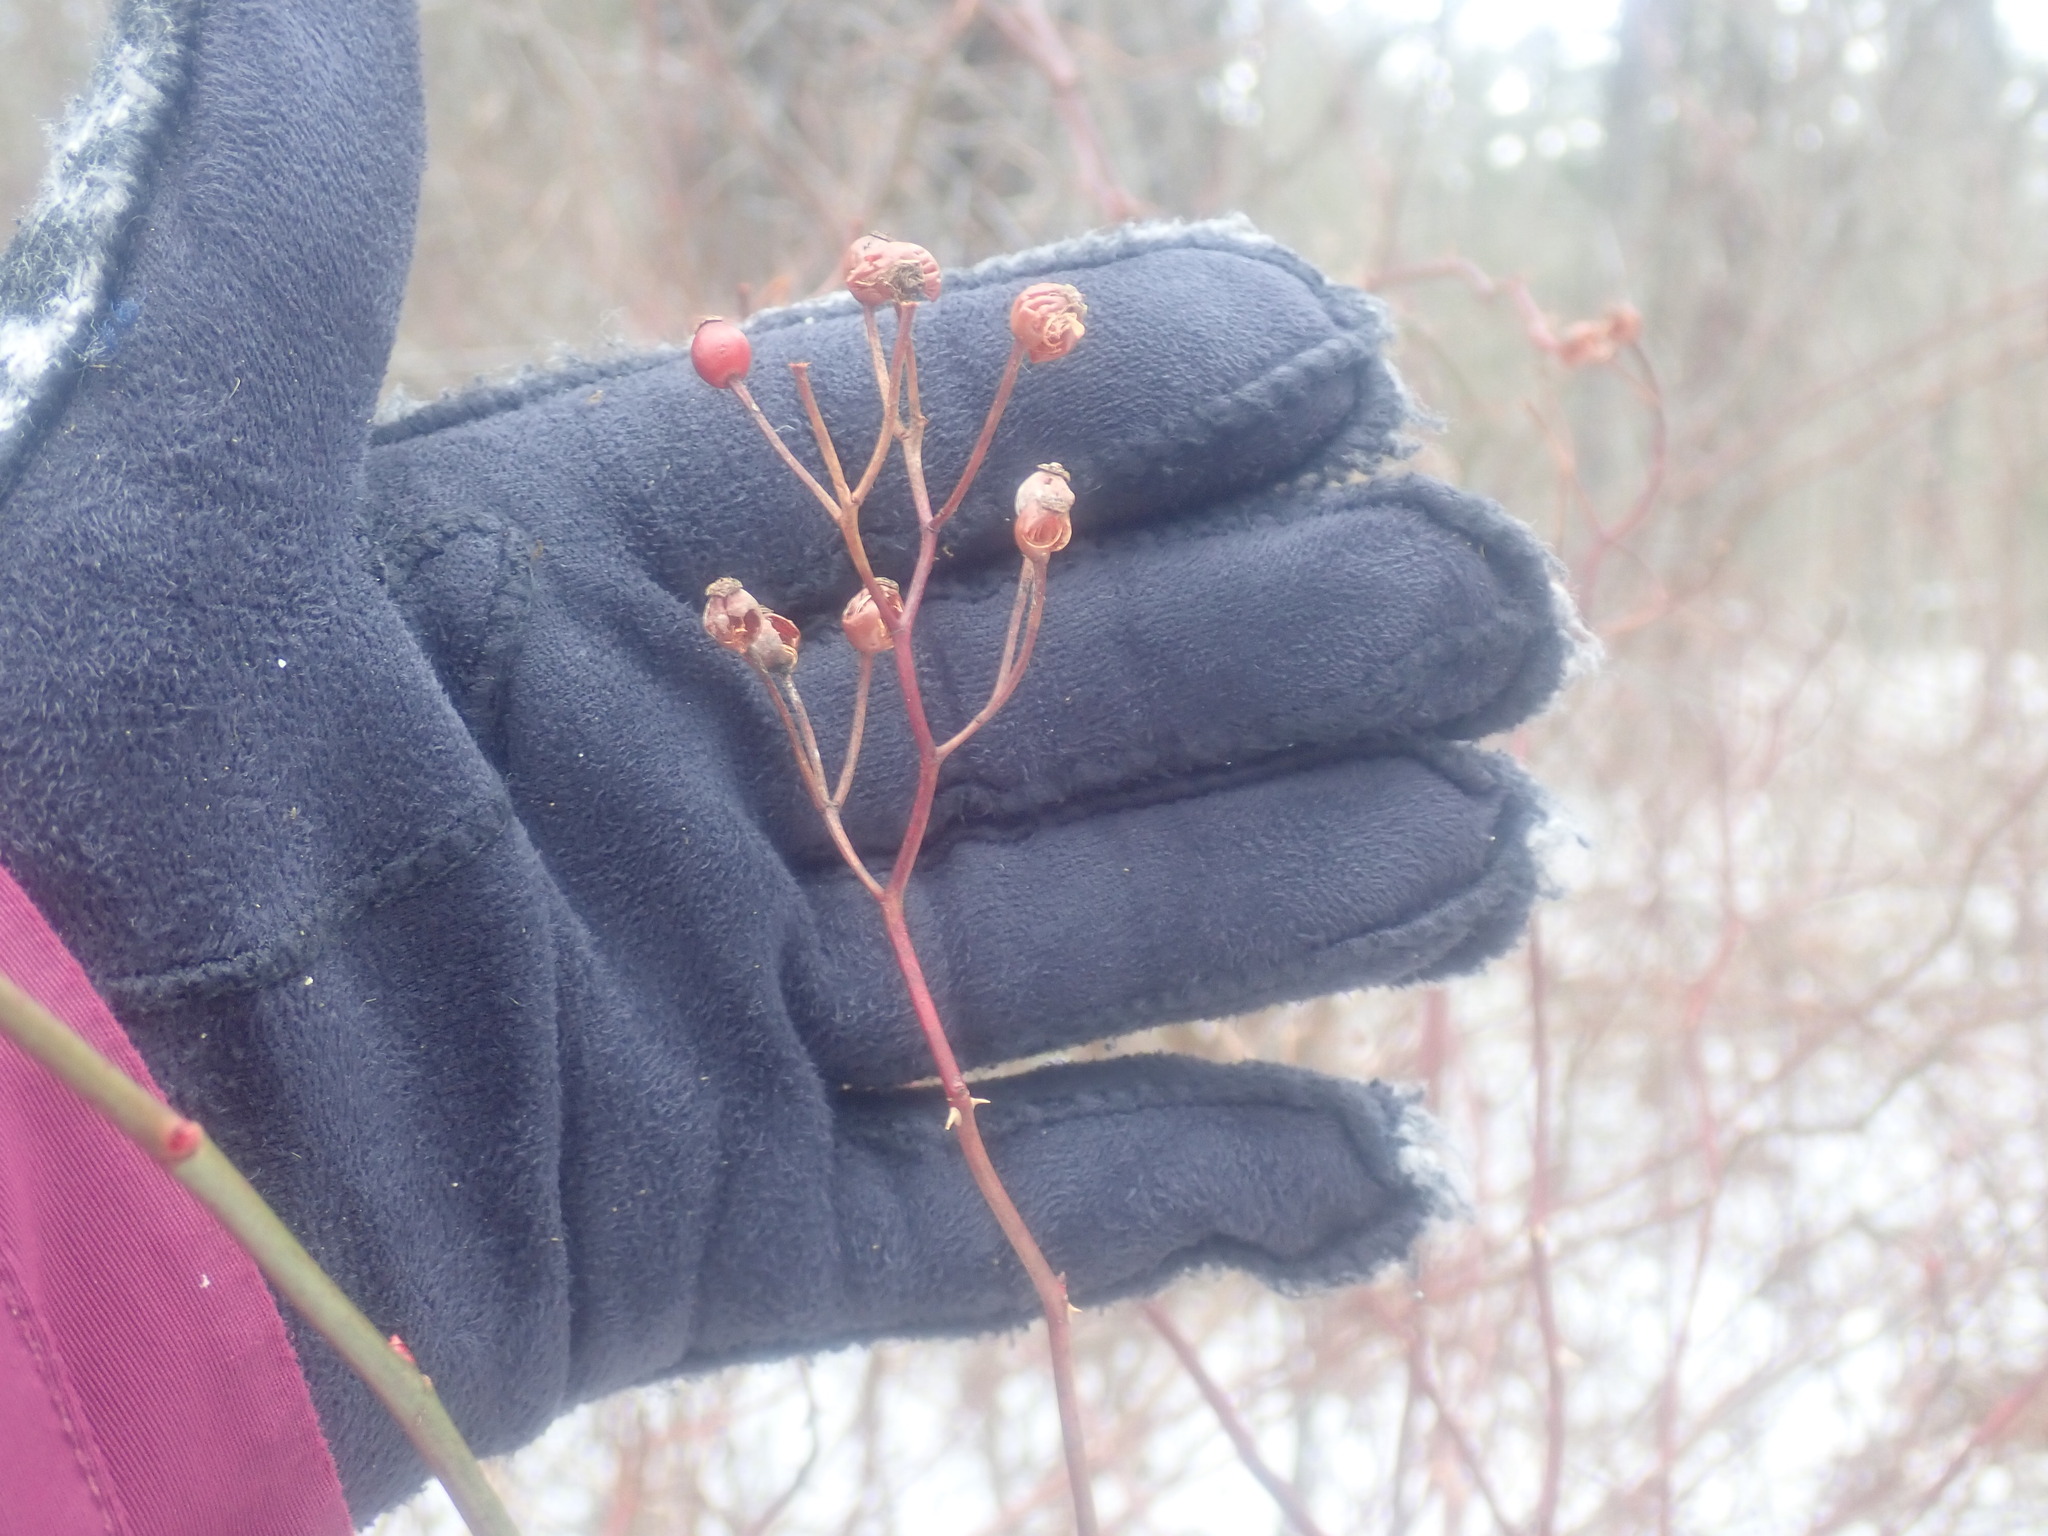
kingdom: Plantae
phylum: Tracheophyta
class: Magnoliopsida
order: Rosales
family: Rosaceae
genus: Rosa
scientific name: Rosa multiflora
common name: Multiflora rose
